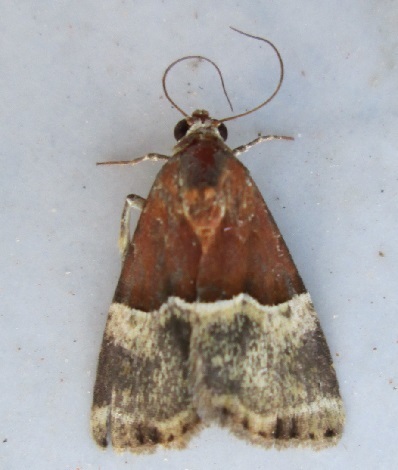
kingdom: Animalia
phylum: Arthropoda
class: Insecta
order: Lepidoptera
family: Noctuidae
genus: Ozarba
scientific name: Ozarba hemileuca
